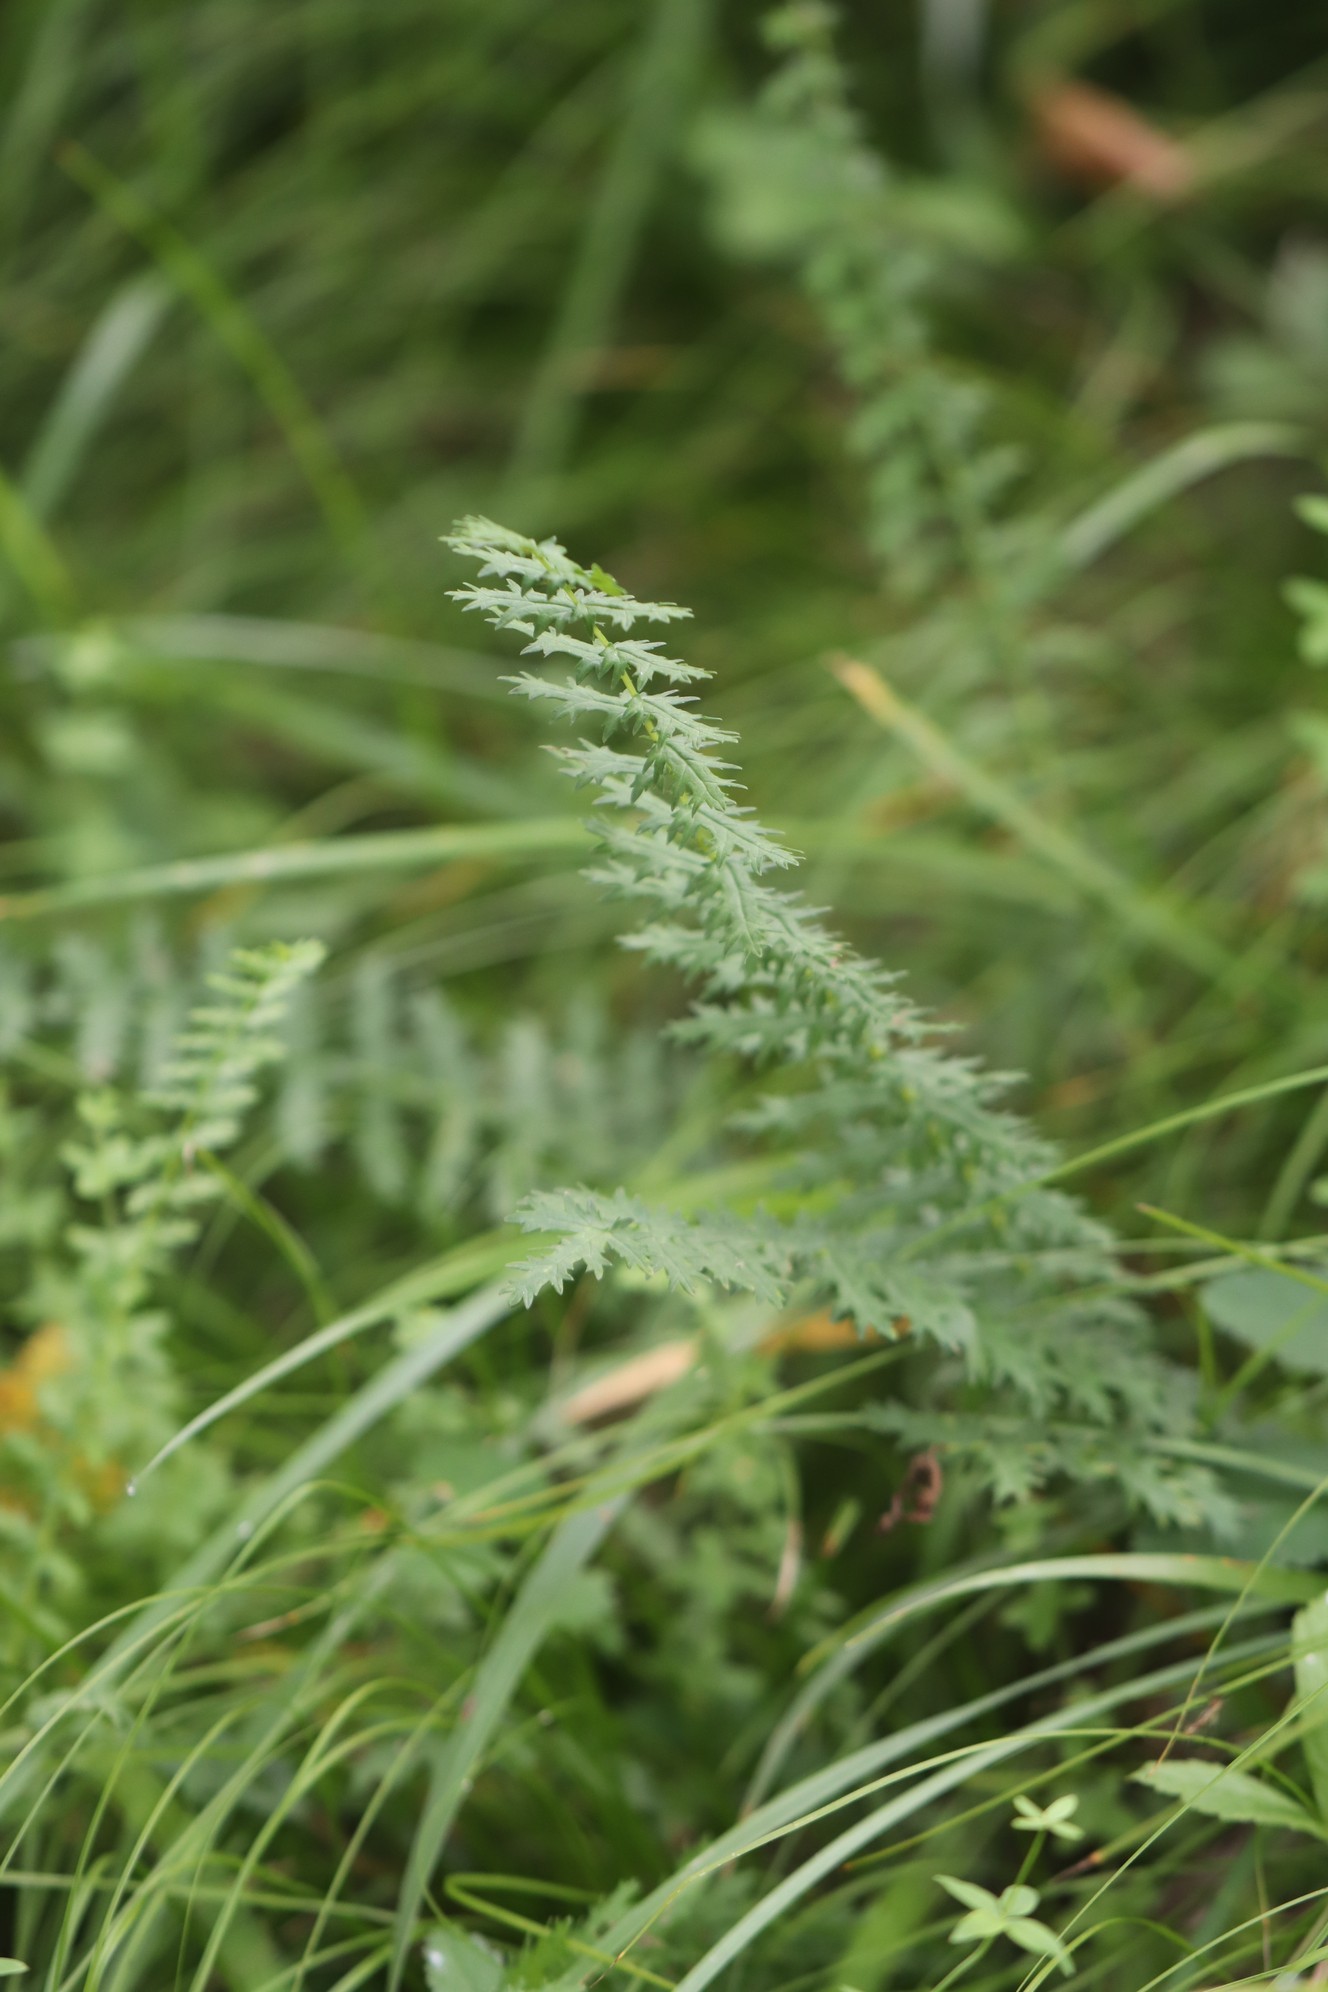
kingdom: Plantae
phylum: Tracheophyta
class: Magnoliopsida
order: Rosales
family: Rosaceae
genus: Filipendula
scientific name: Filipendula vulgaris
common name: Dropwort
